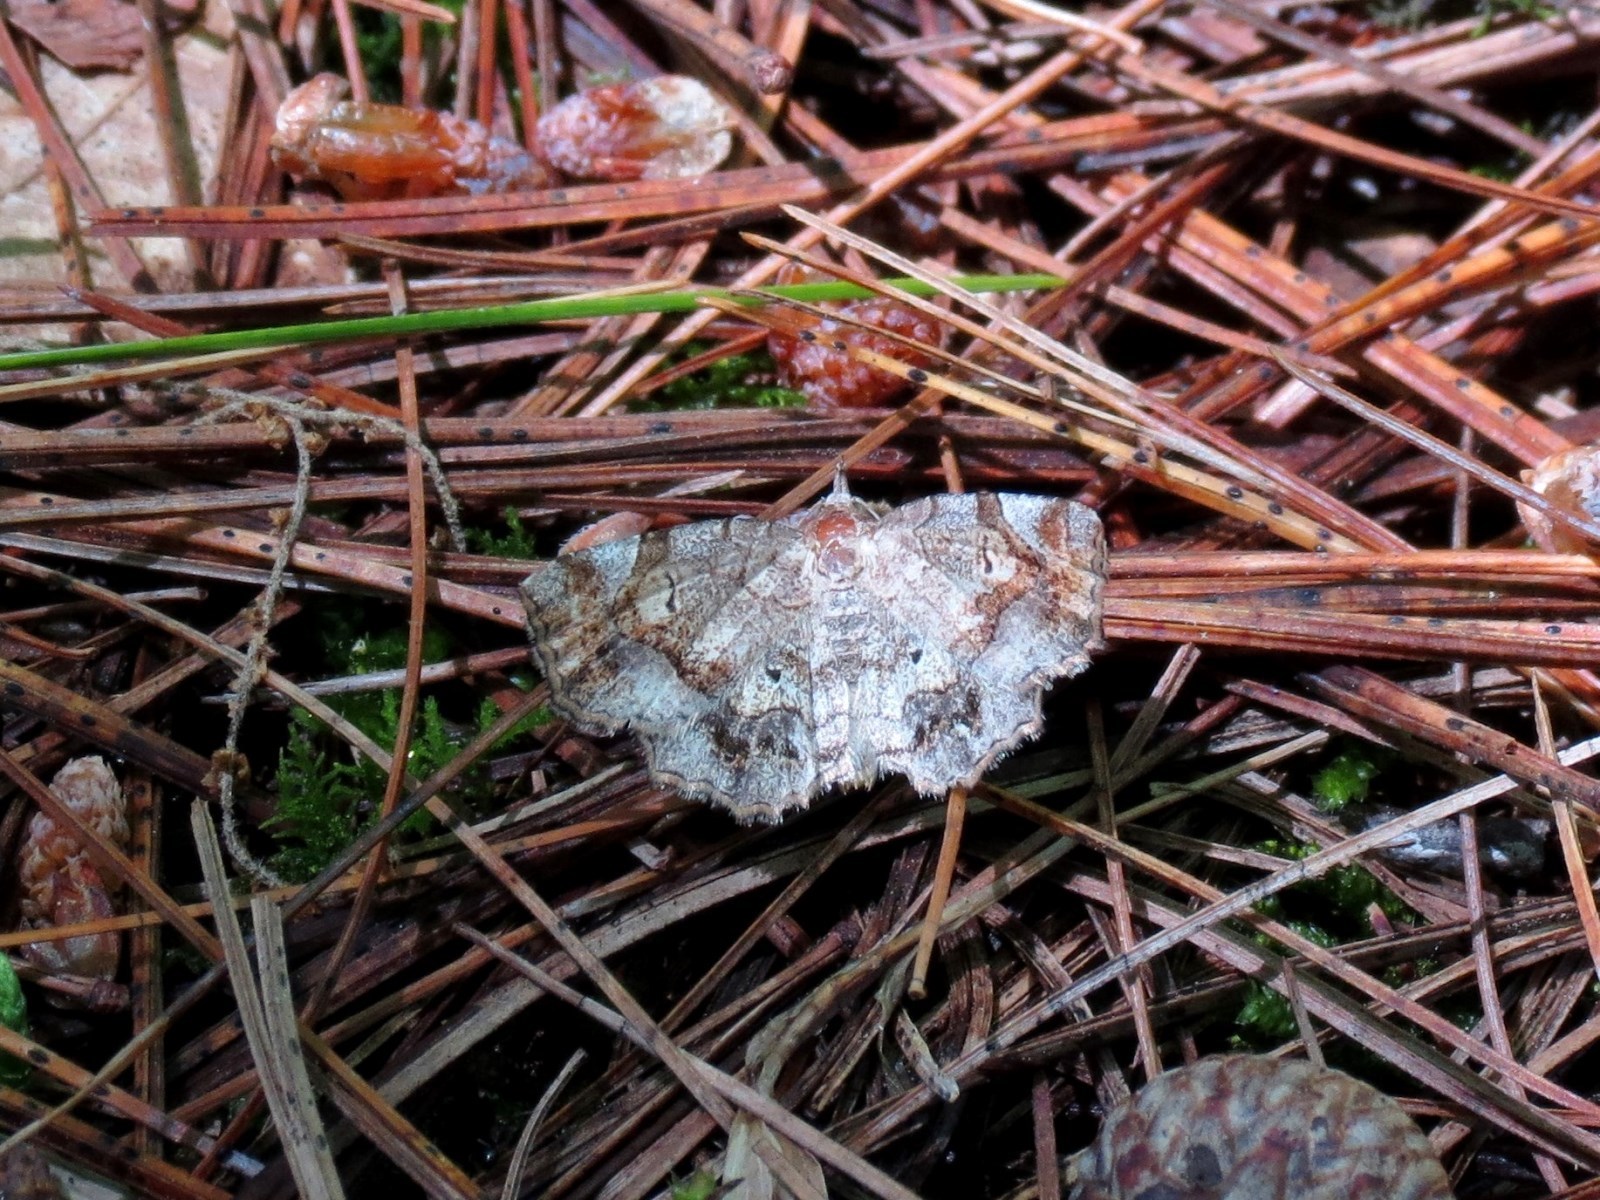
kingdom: Animalia
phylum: Arthropoda
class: Insecta
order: Lepidoptera
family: Erebidae
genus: Pangrapta
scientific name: Pangrapta decoralis
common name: Decorated owlet
